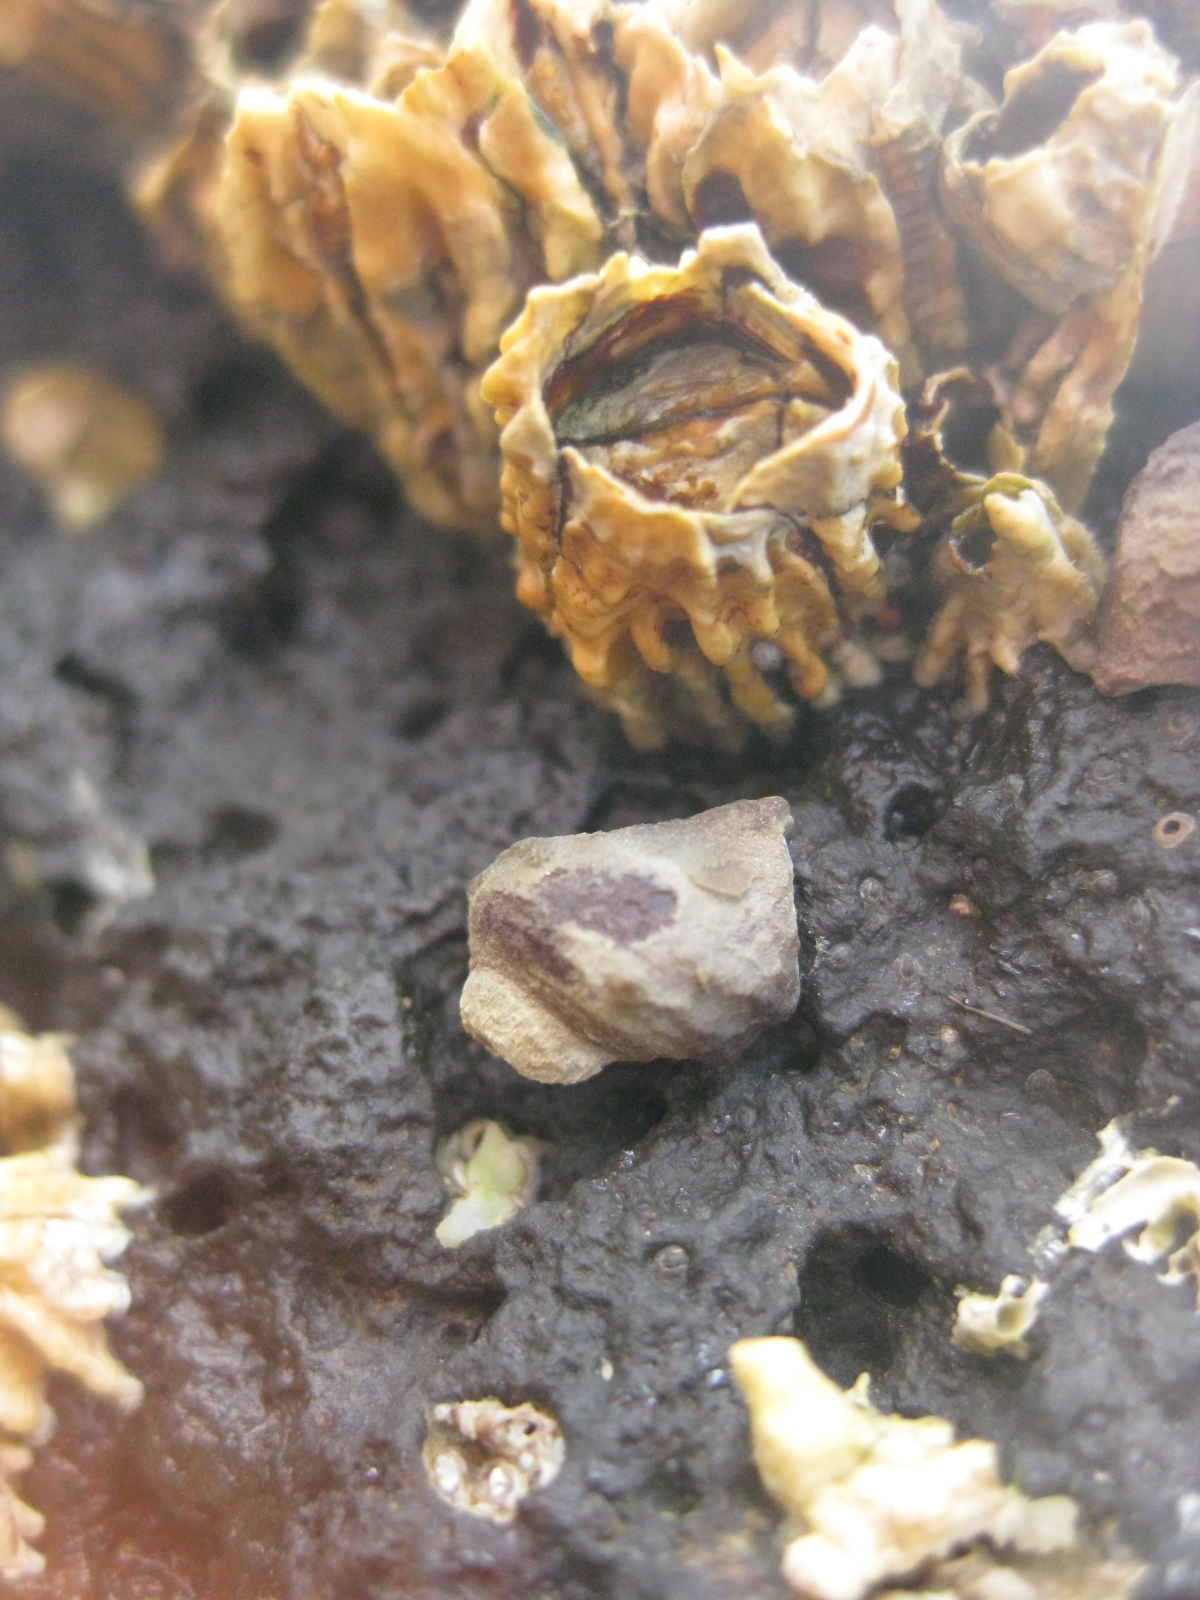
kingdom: Animalia
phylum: Mollusca
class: Gastropoda
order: Neogastropoda
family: Muricidae
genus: Haustrum
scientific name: Haustrum scobina
